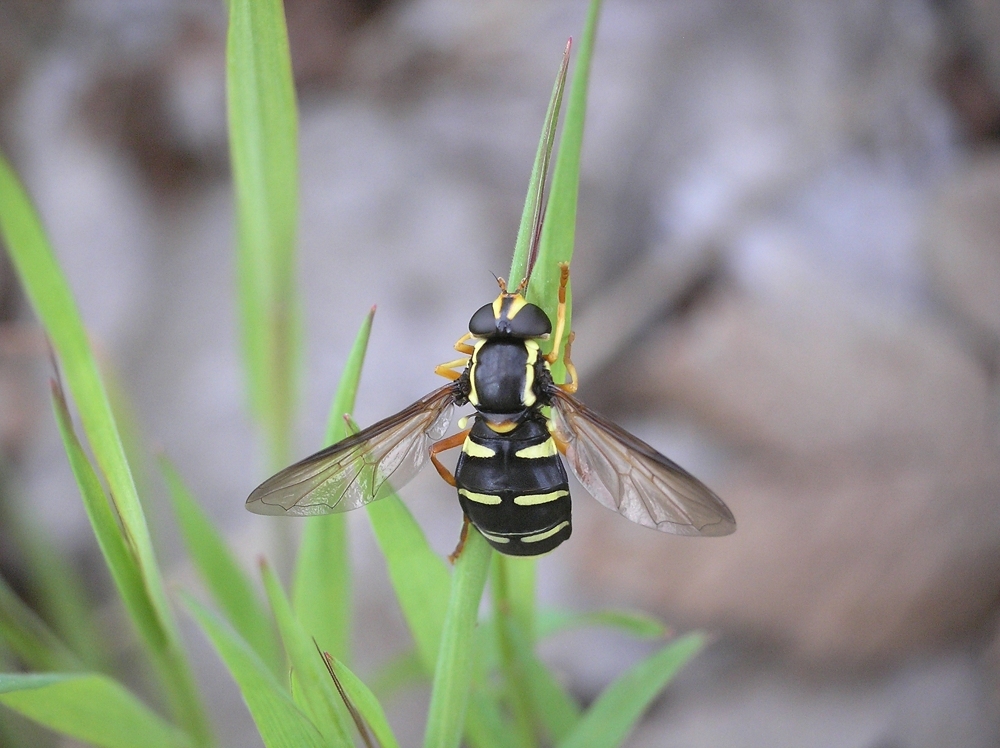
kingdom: Animalia
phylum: Arthropoda
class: Insecta
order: Diptera
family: Syrphidae
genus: Philhelius
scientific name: Philhelius citrofasciata
